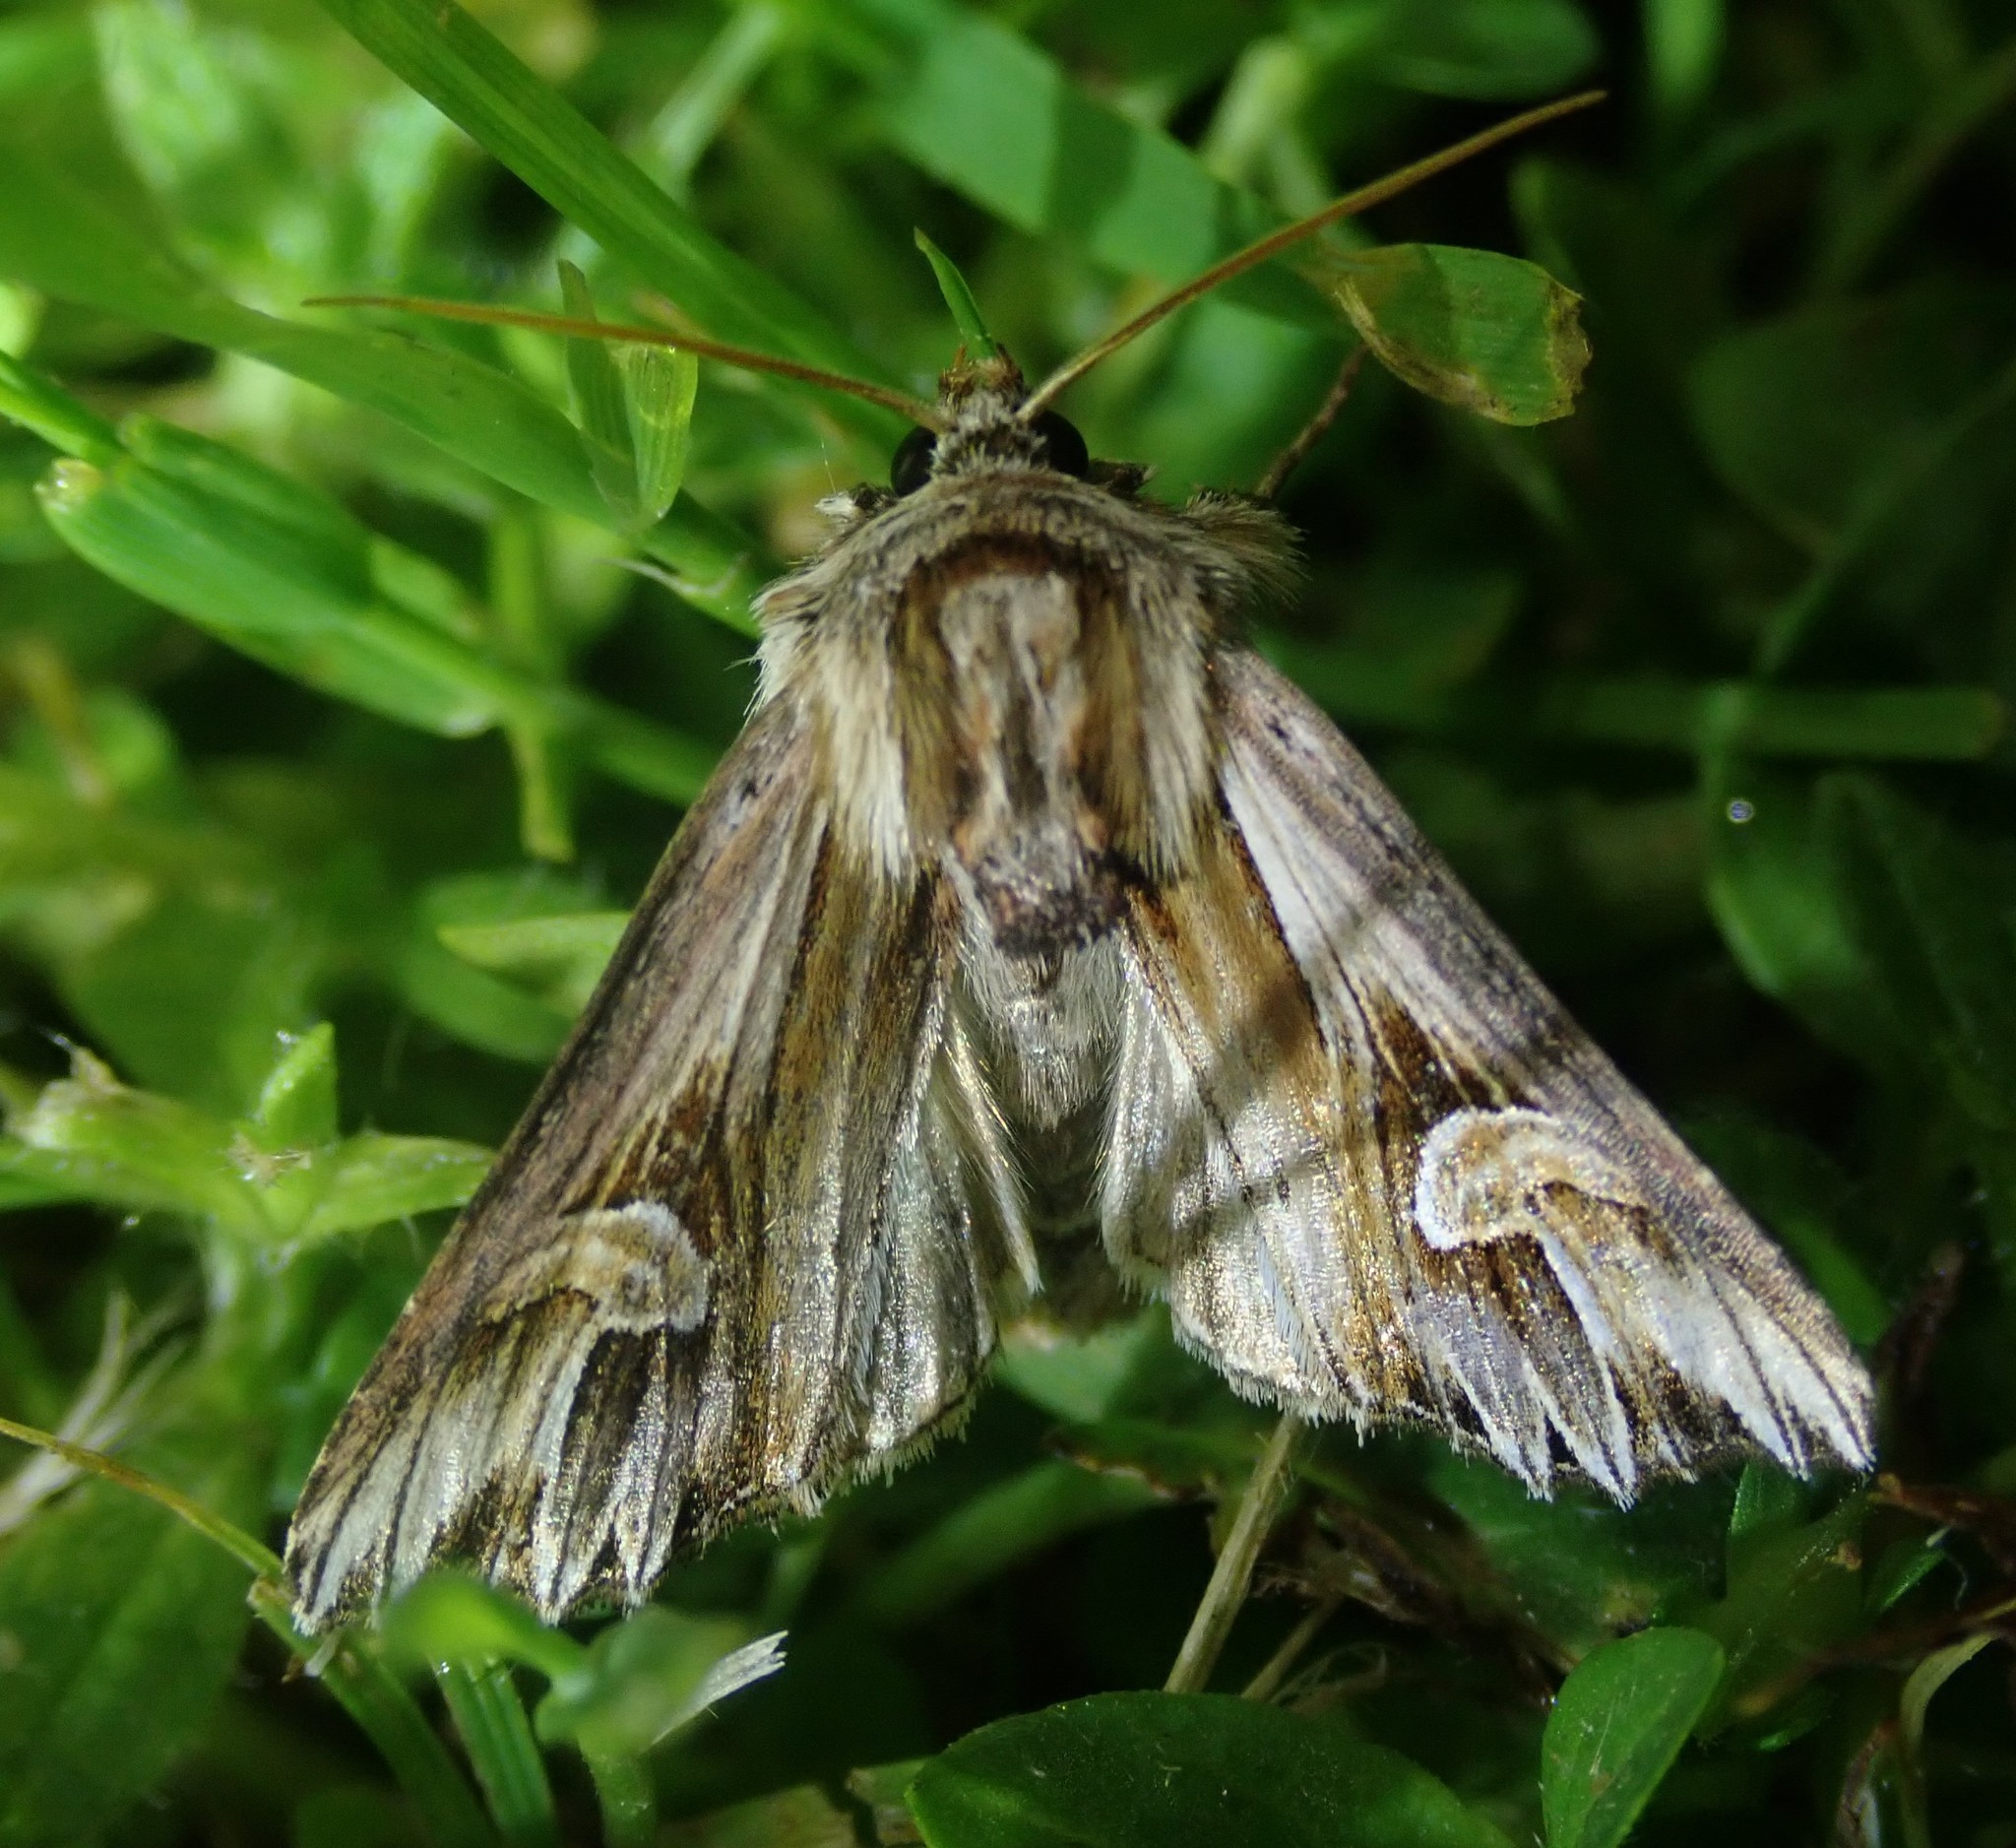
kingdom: Animalia
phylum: Arthropoda
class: Insecta
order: Lepidoptera
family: Noctuidae
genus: Actinotia
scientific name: Actinotia polyodon
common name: Purple cloud
